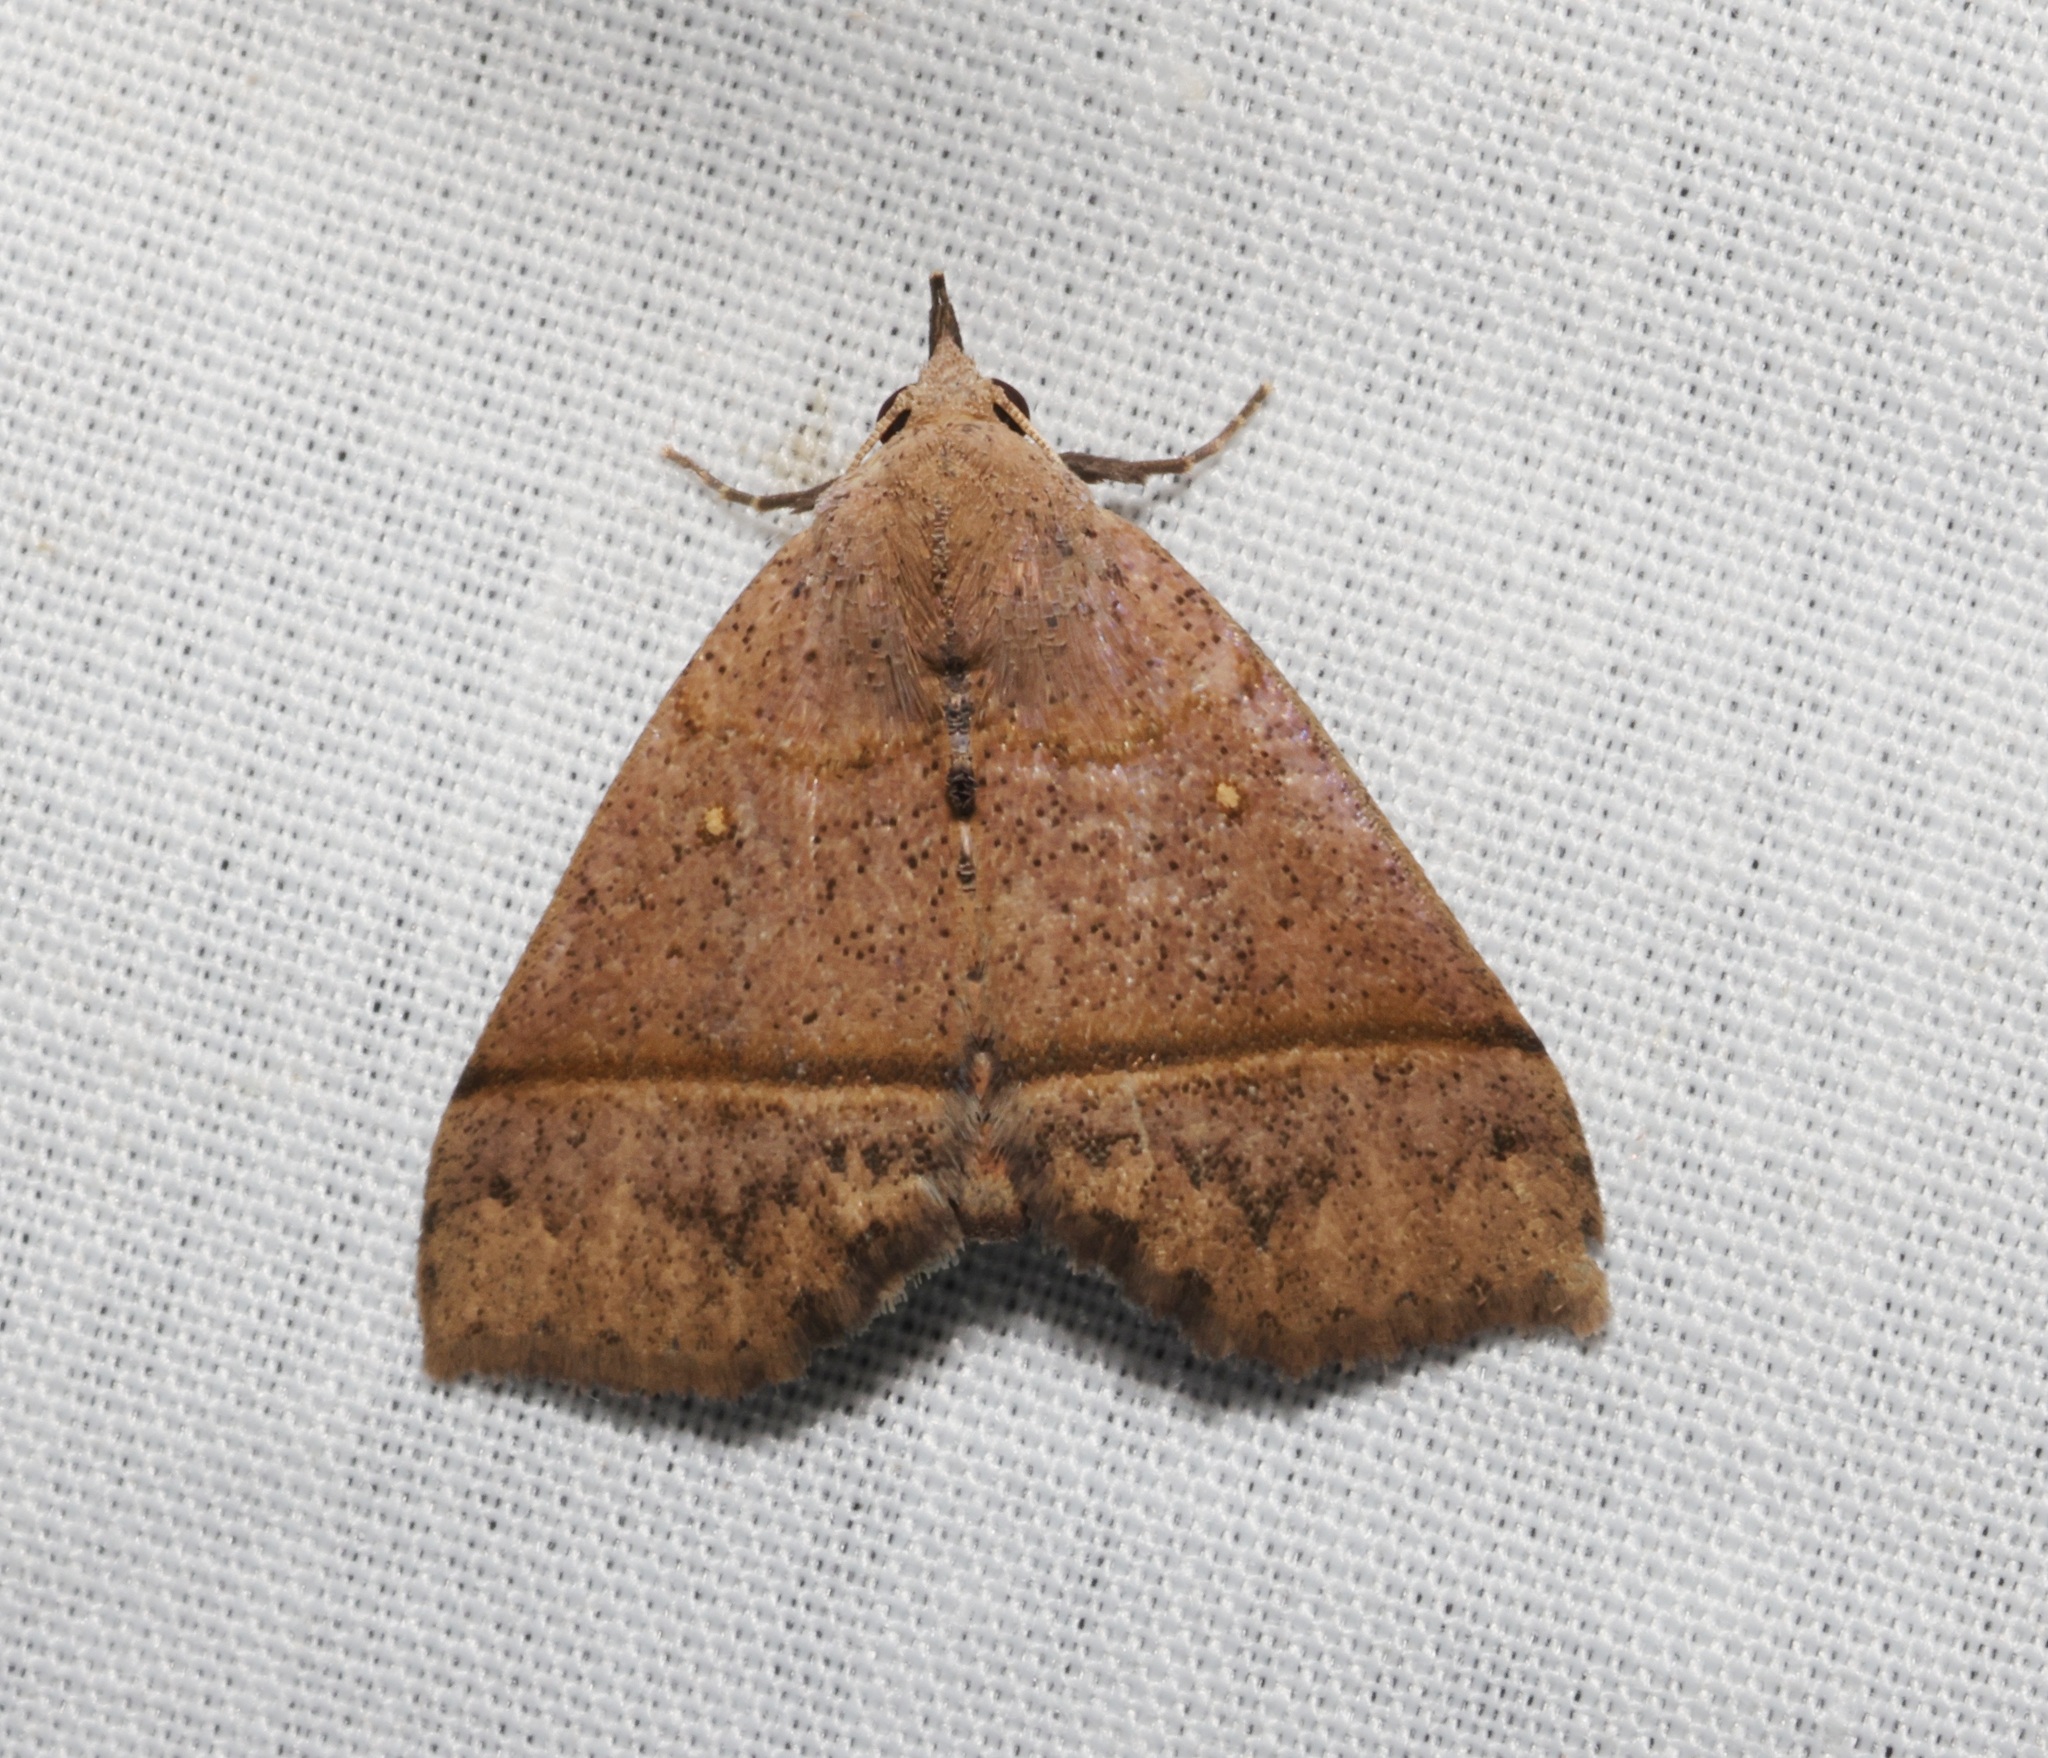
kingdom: Animalia
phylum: Arthropoda
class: Insecta
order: Lepidoptera
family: Erebidae
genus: Hepatica
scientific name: Hepatica irrorata
